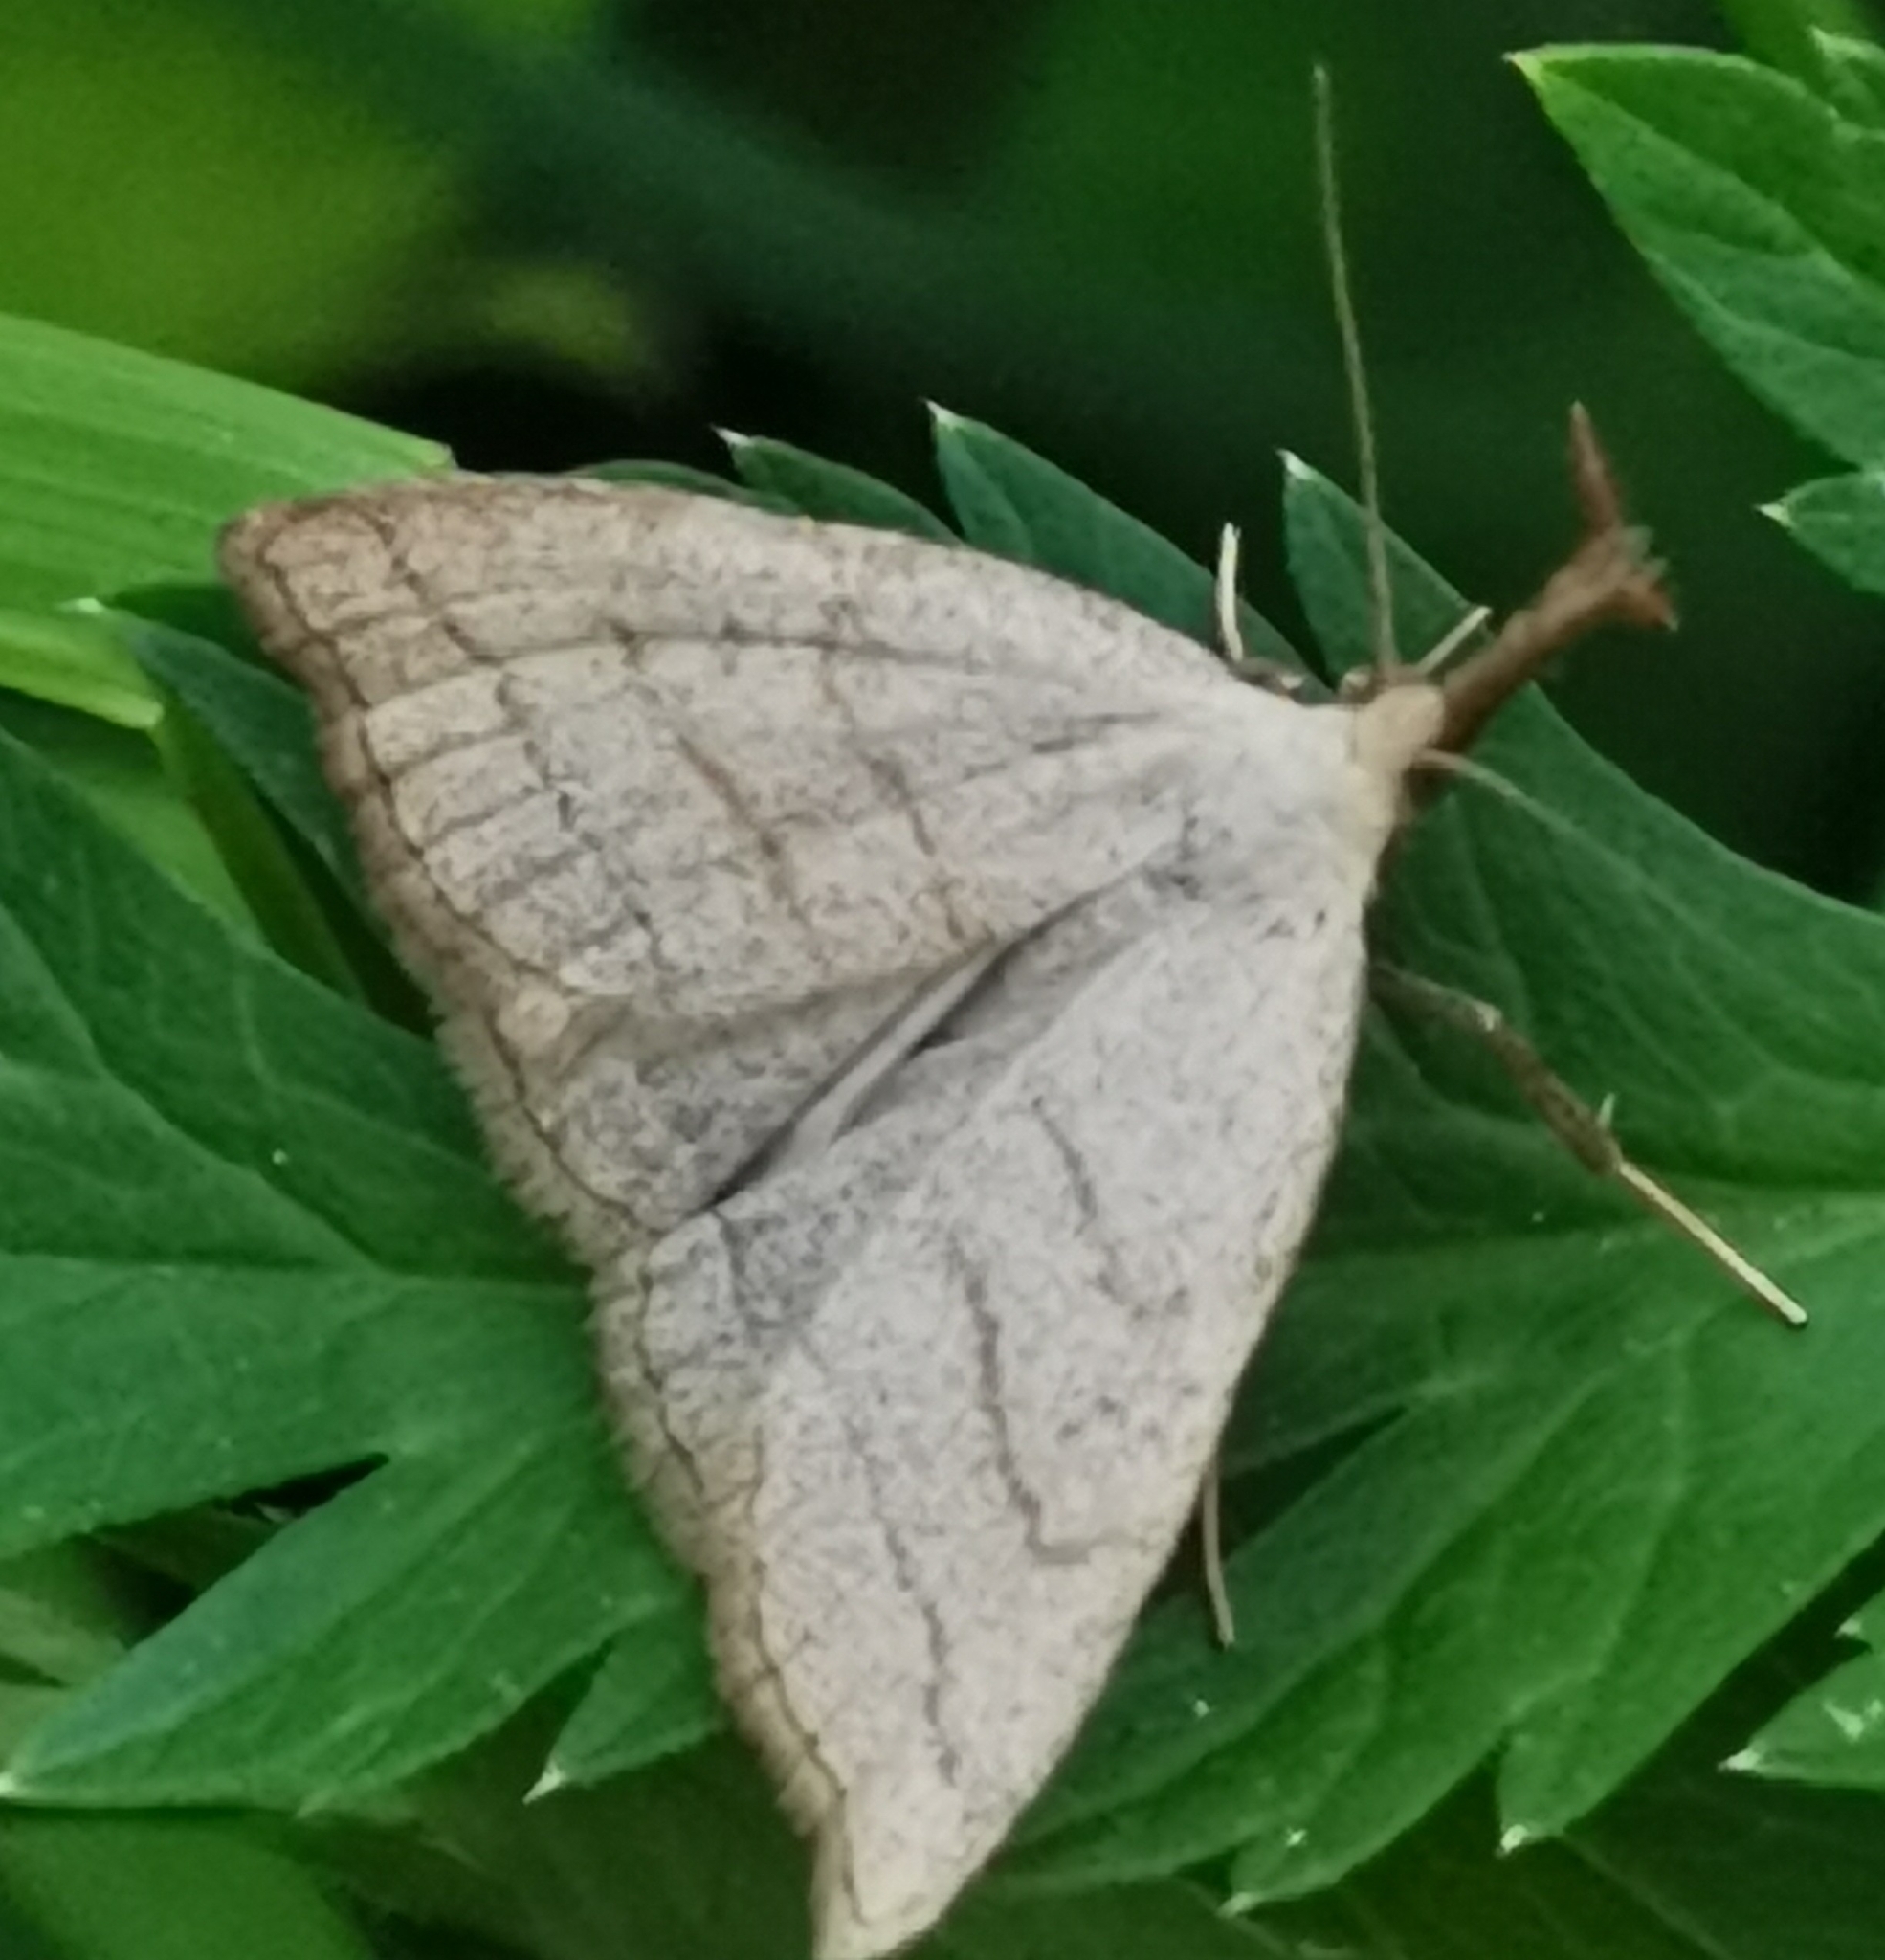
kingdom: Animalia
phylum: Arthropoda
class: Insecta
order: Lepidoptera
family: Erebidae
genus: Polypogon
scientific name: Polypogon tentacularia
